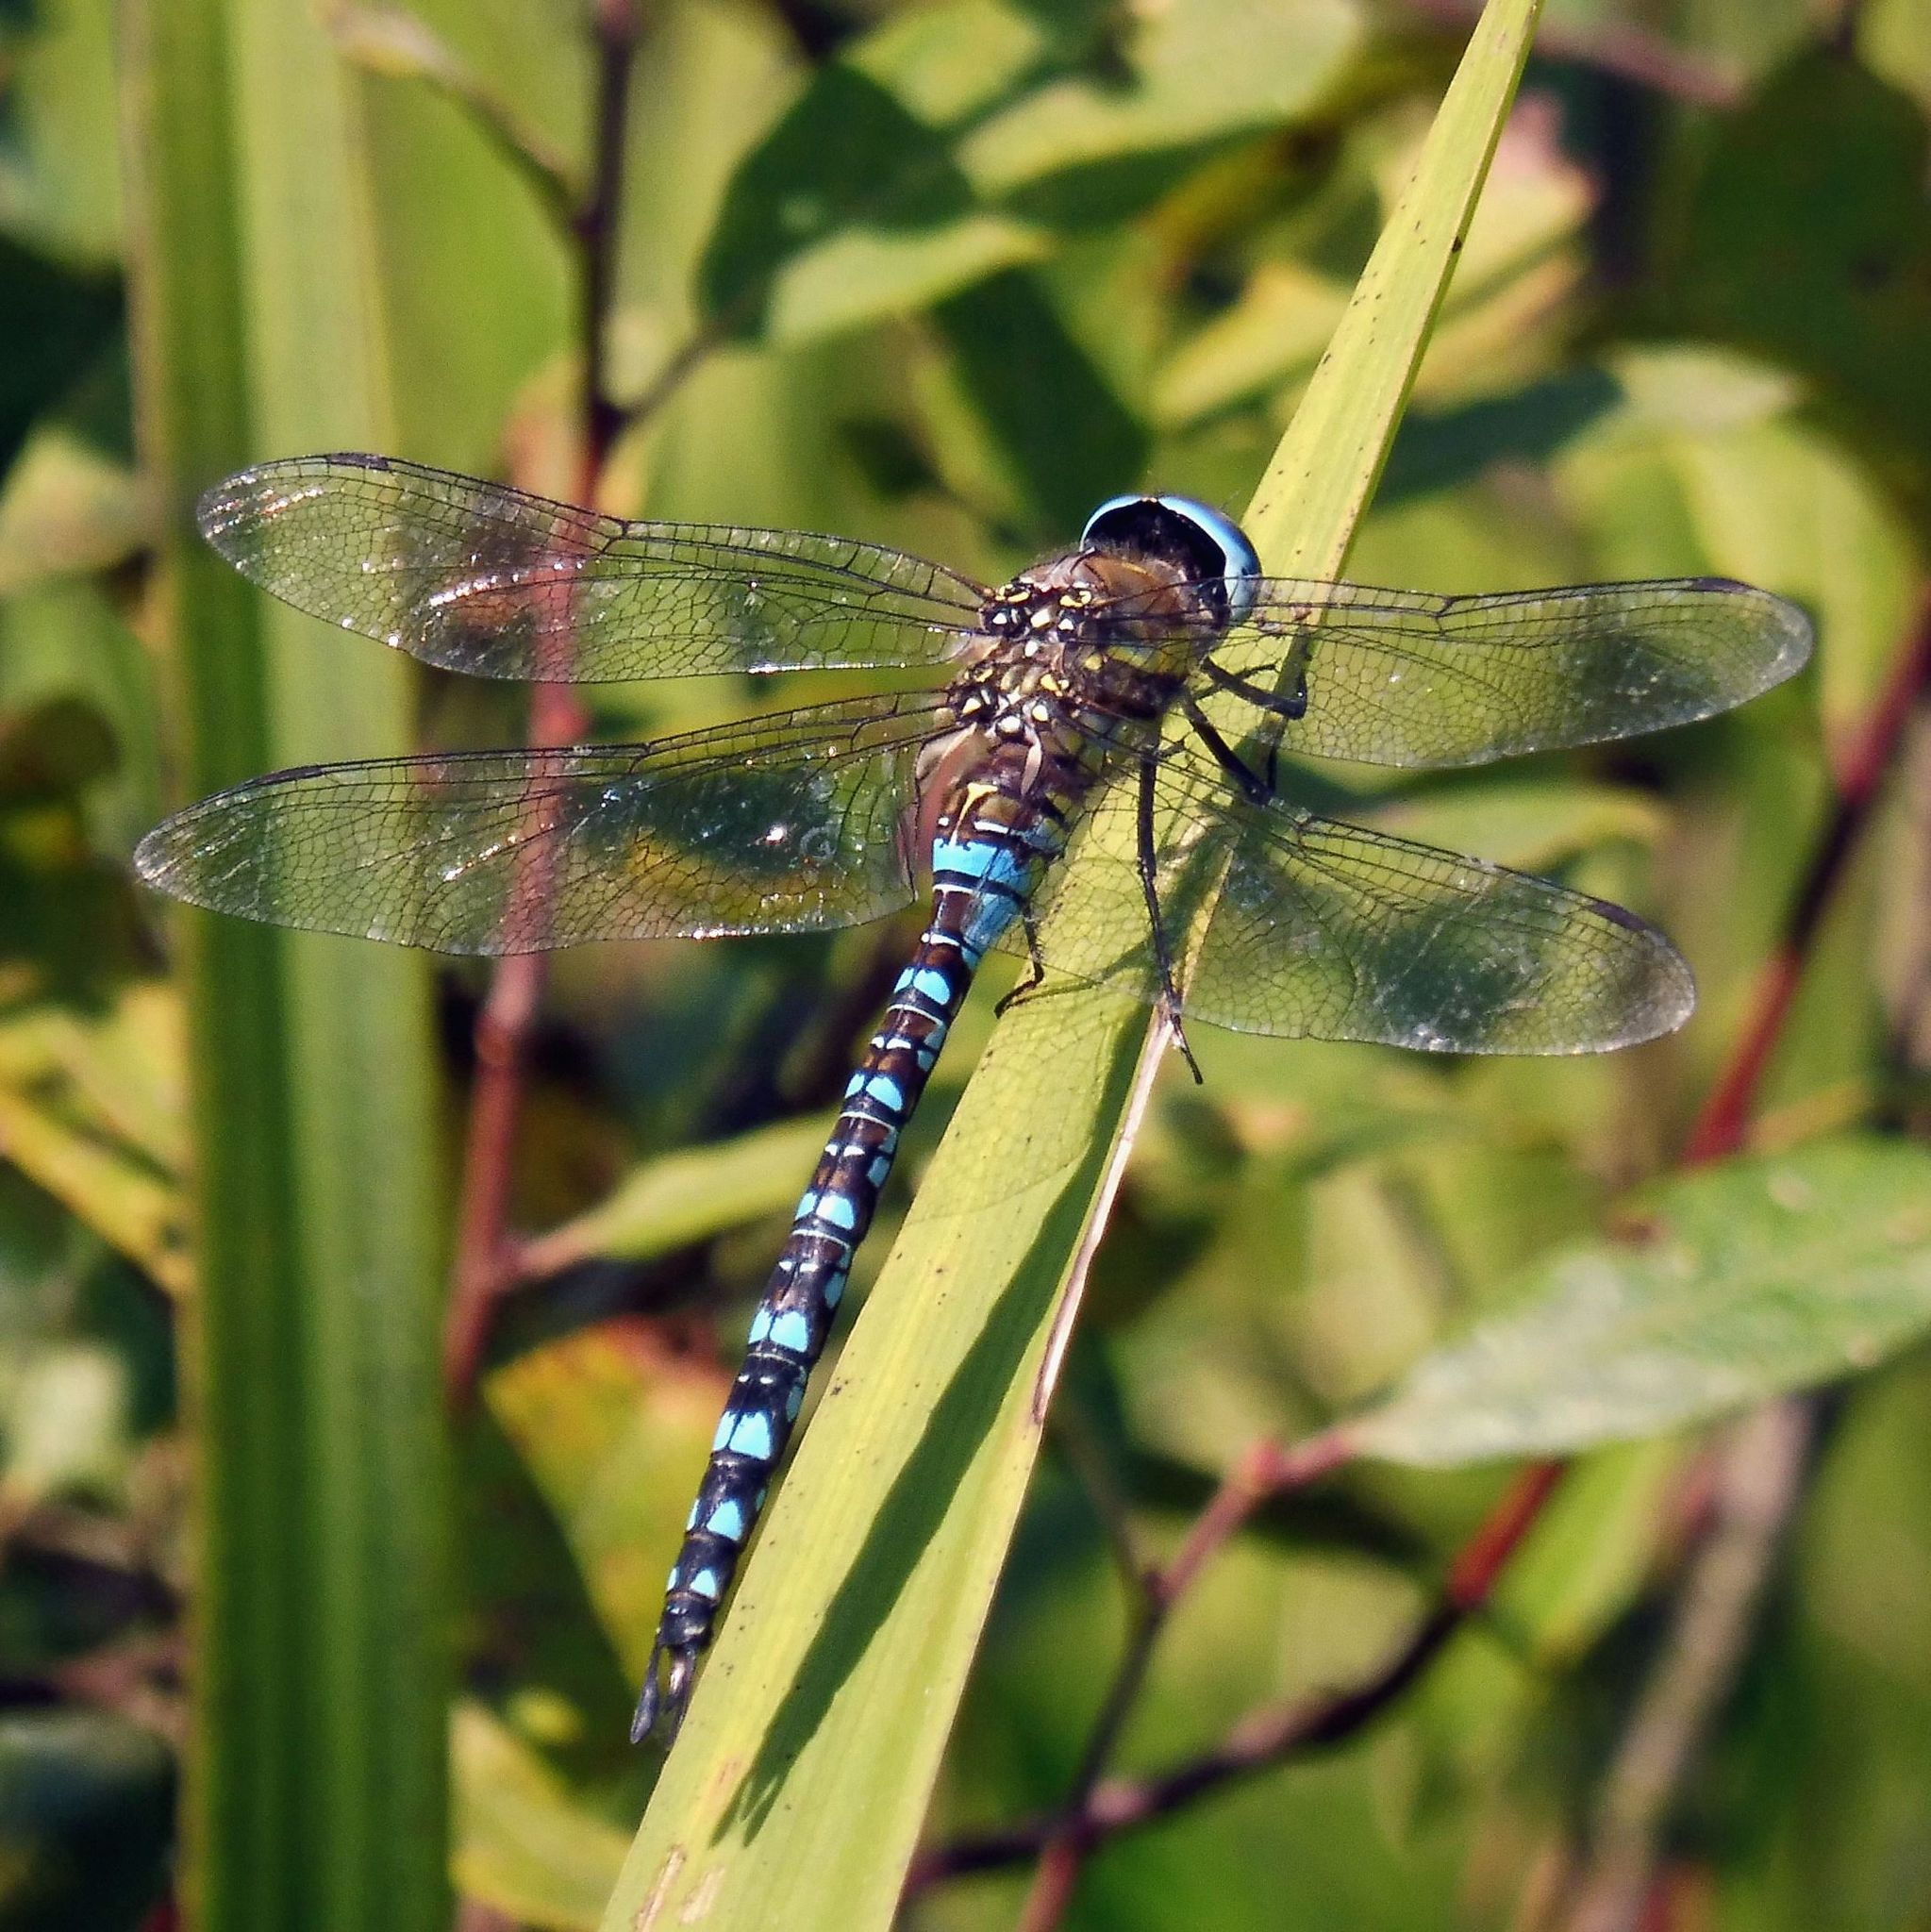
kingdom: Animalia
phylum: Arthropoda
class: Insecta
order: Odonata
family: Aeshnidae
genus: Aeshna
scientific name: Aeshna mixta
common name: Migrant hawker
